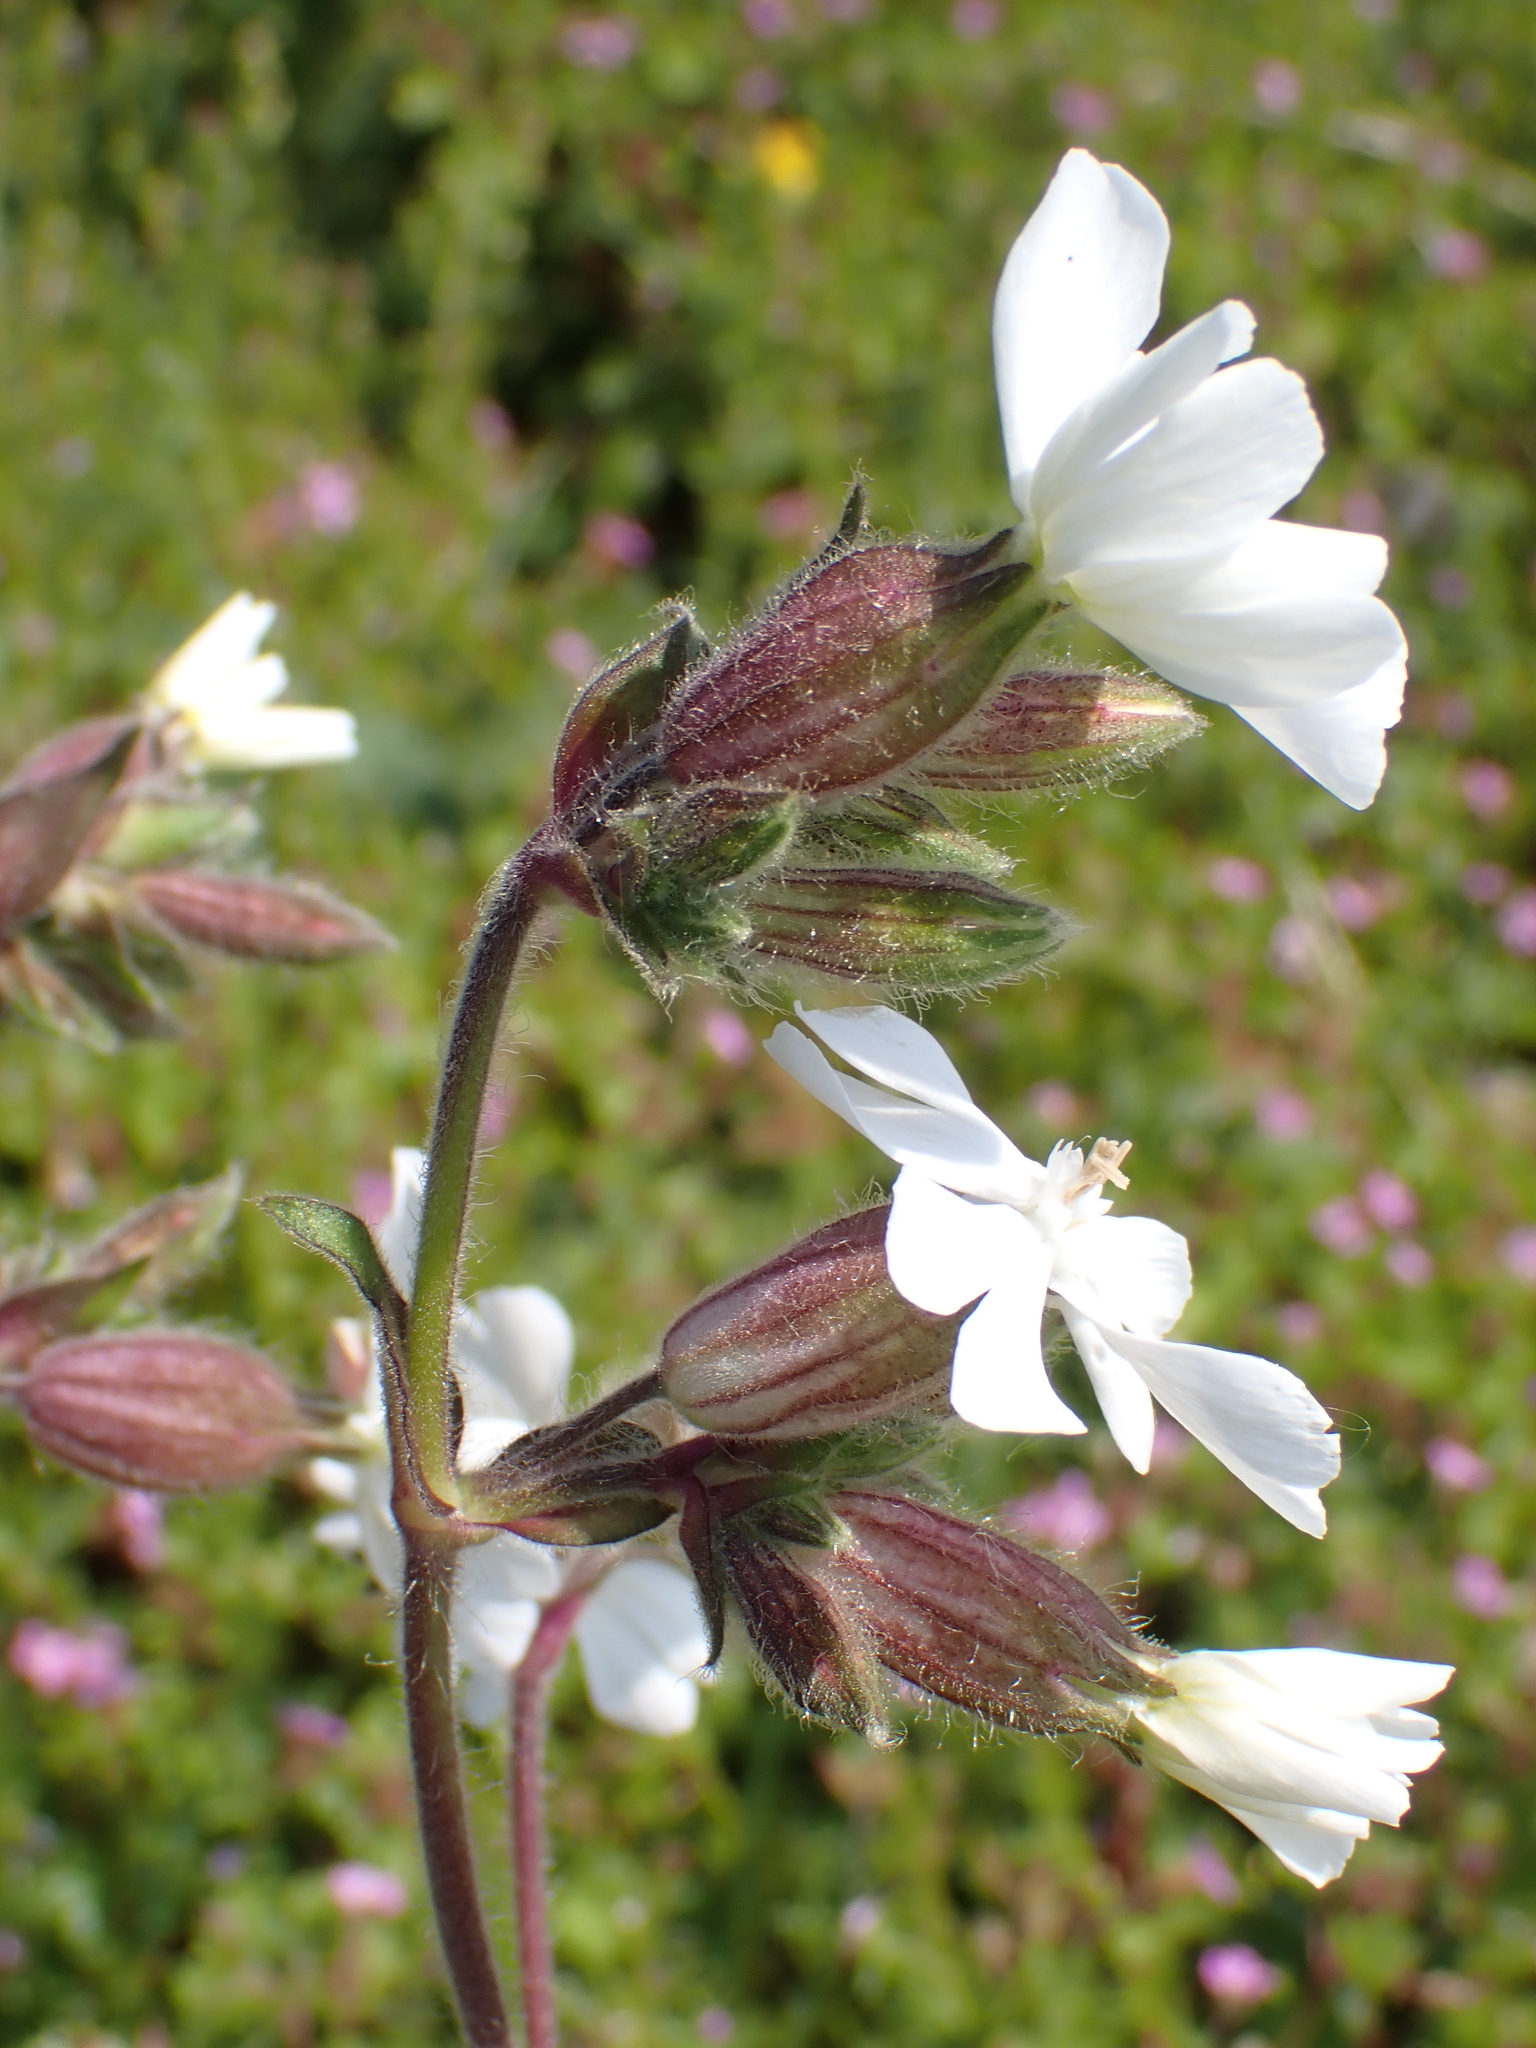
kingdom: Plantae
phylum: Tracheophyta
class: Magnoliopsida
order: Caryophyllales
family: Caryophyllaceae
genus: Silene
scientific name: Silene latifolia
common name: White campion
